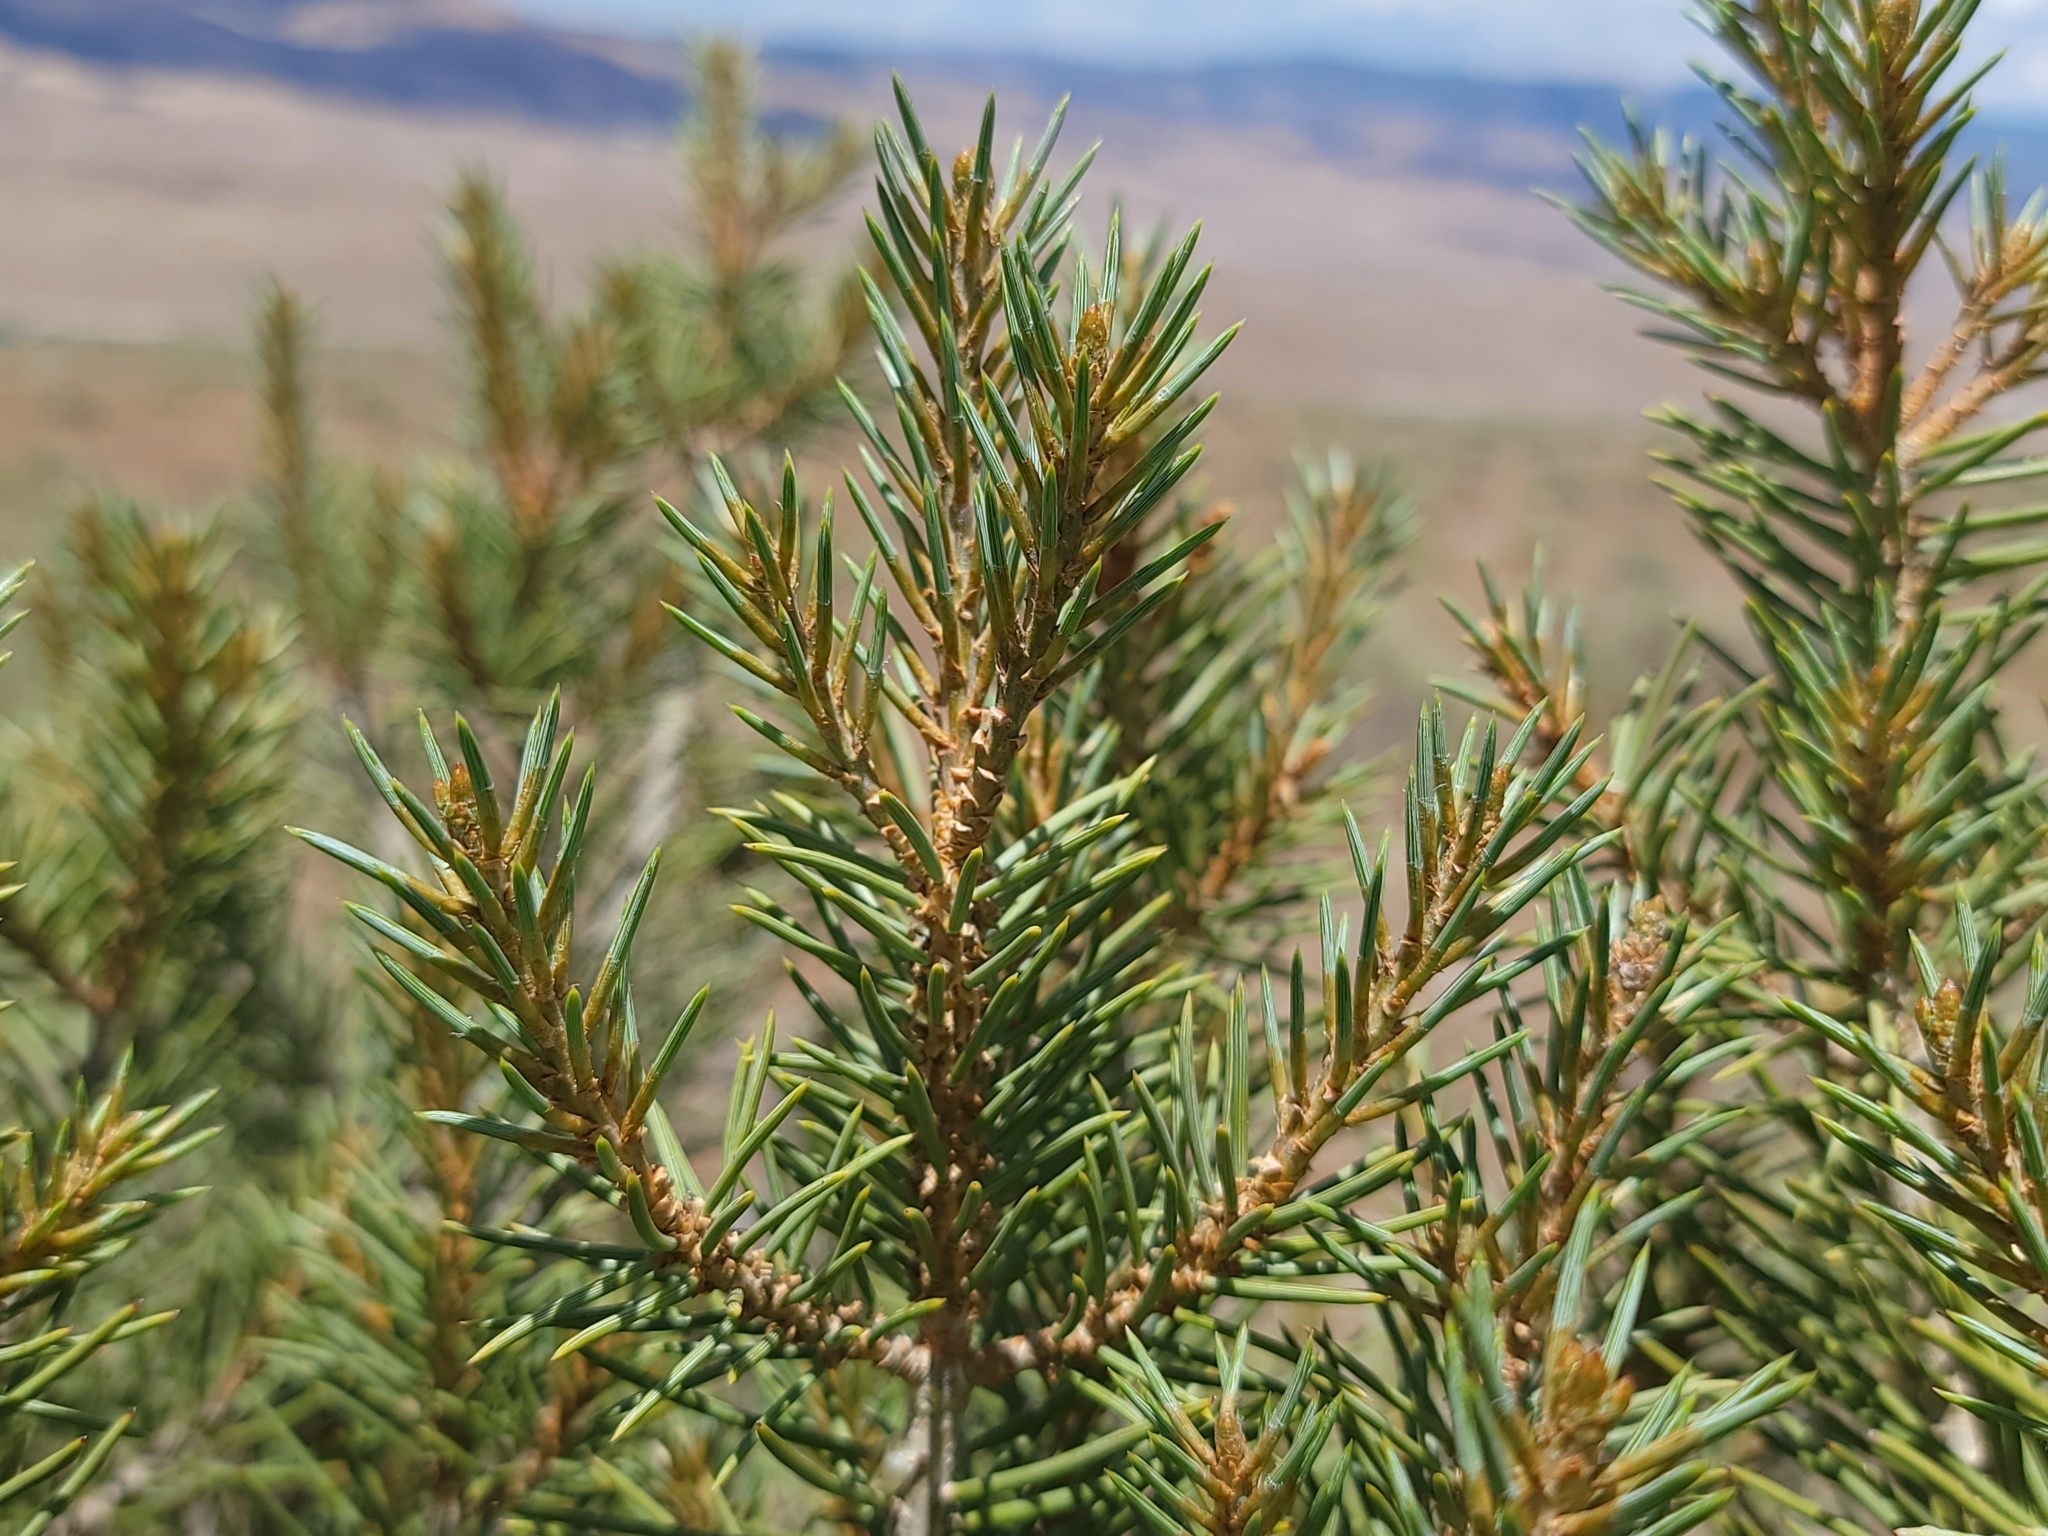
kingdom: Plantae
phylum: Tracheophyta
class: Pinopsida
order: Pinales
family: Pinaceae
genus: Pinus
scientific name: Pinus monophylla
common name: One-leaved nut pine
